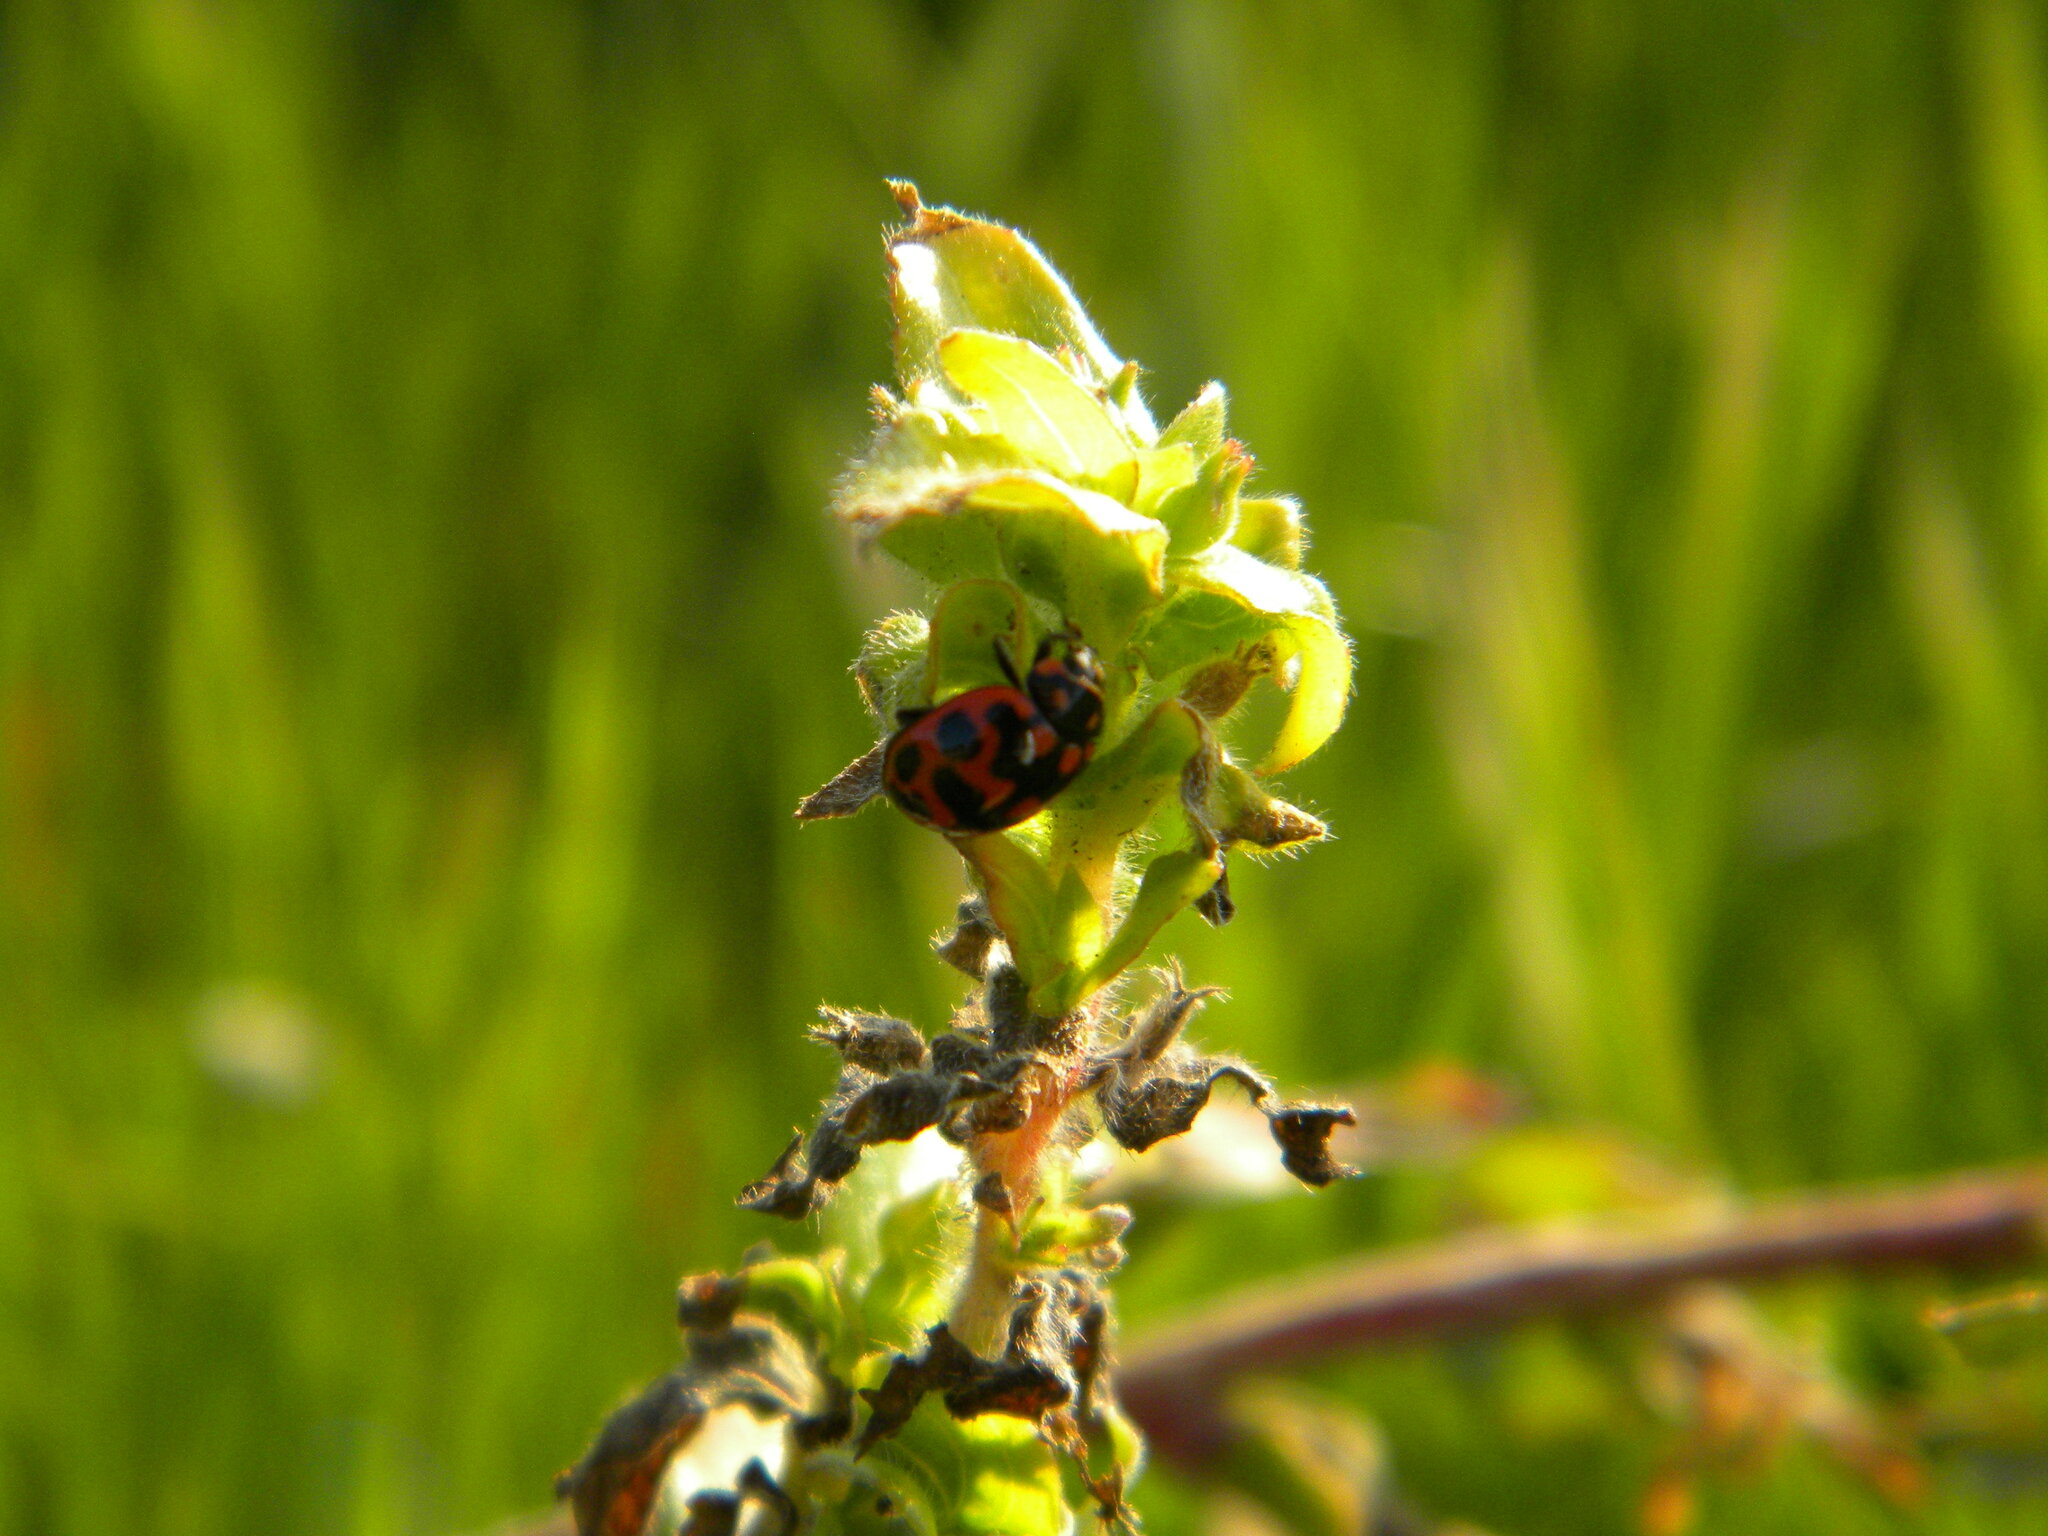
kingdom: Animalia
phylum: Arthropoda
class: Insecta
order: Coleoptera
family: Coccinellidae
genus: Lioadalia
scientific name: Lioadalia flavomaculata
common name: Ladybird beetle
